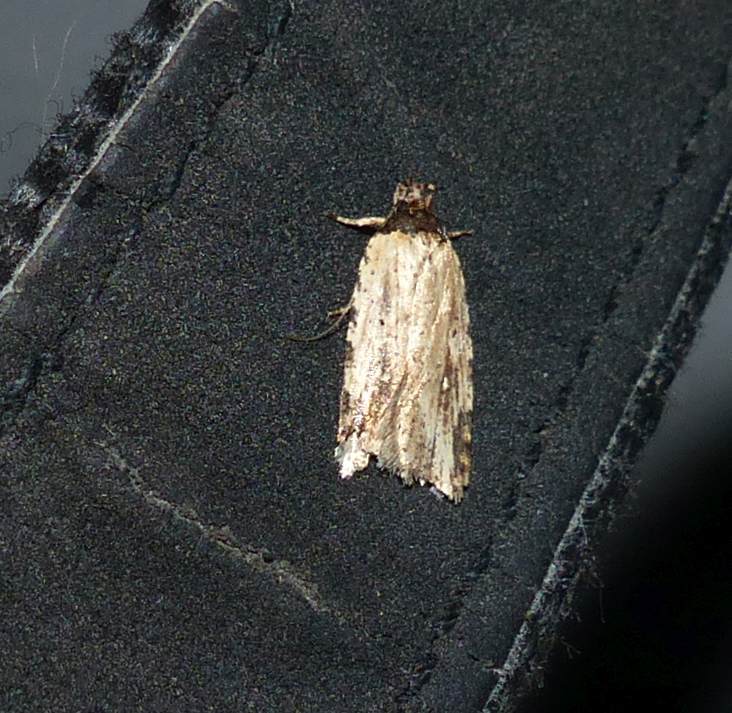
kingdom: Animalia
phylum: Arthropoda
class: Insecta
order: Lepidoptera
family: Depressariidae
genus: Agonopterix
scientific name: Agonopterix atrodorsella
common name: Beggartick leaffolder
